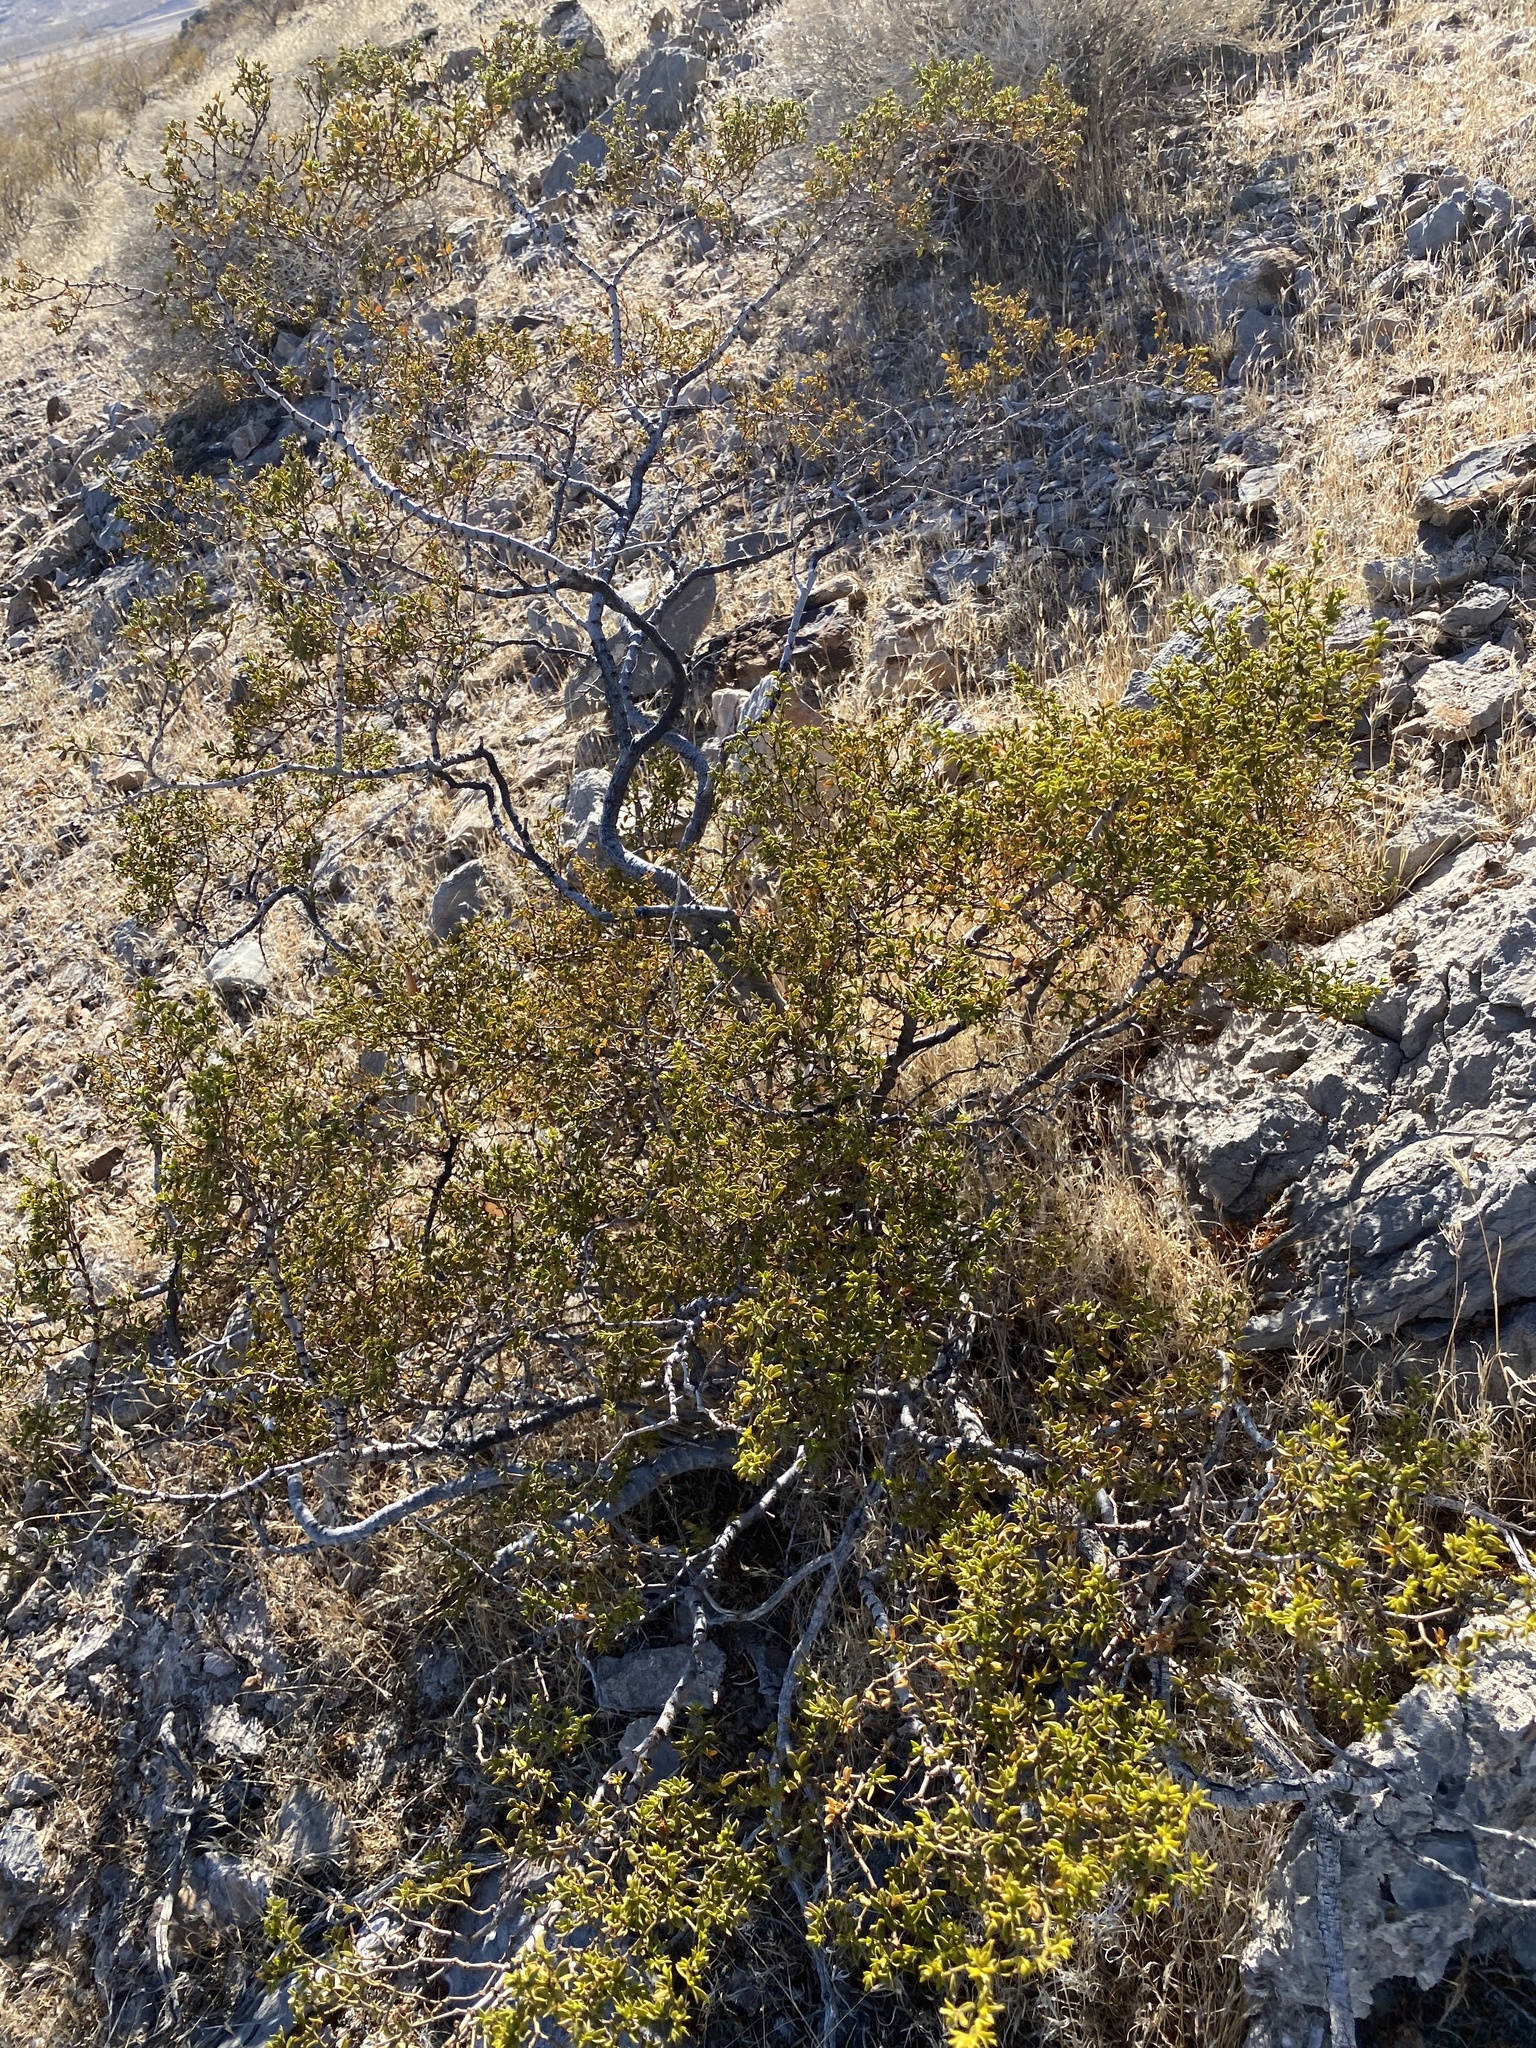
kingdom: Plantae
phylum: Tracheophyta
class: Magnoliopsida
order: Zygophyllales
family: Zygophyllaceae
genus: Larrea
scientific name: Larrea tridentata
